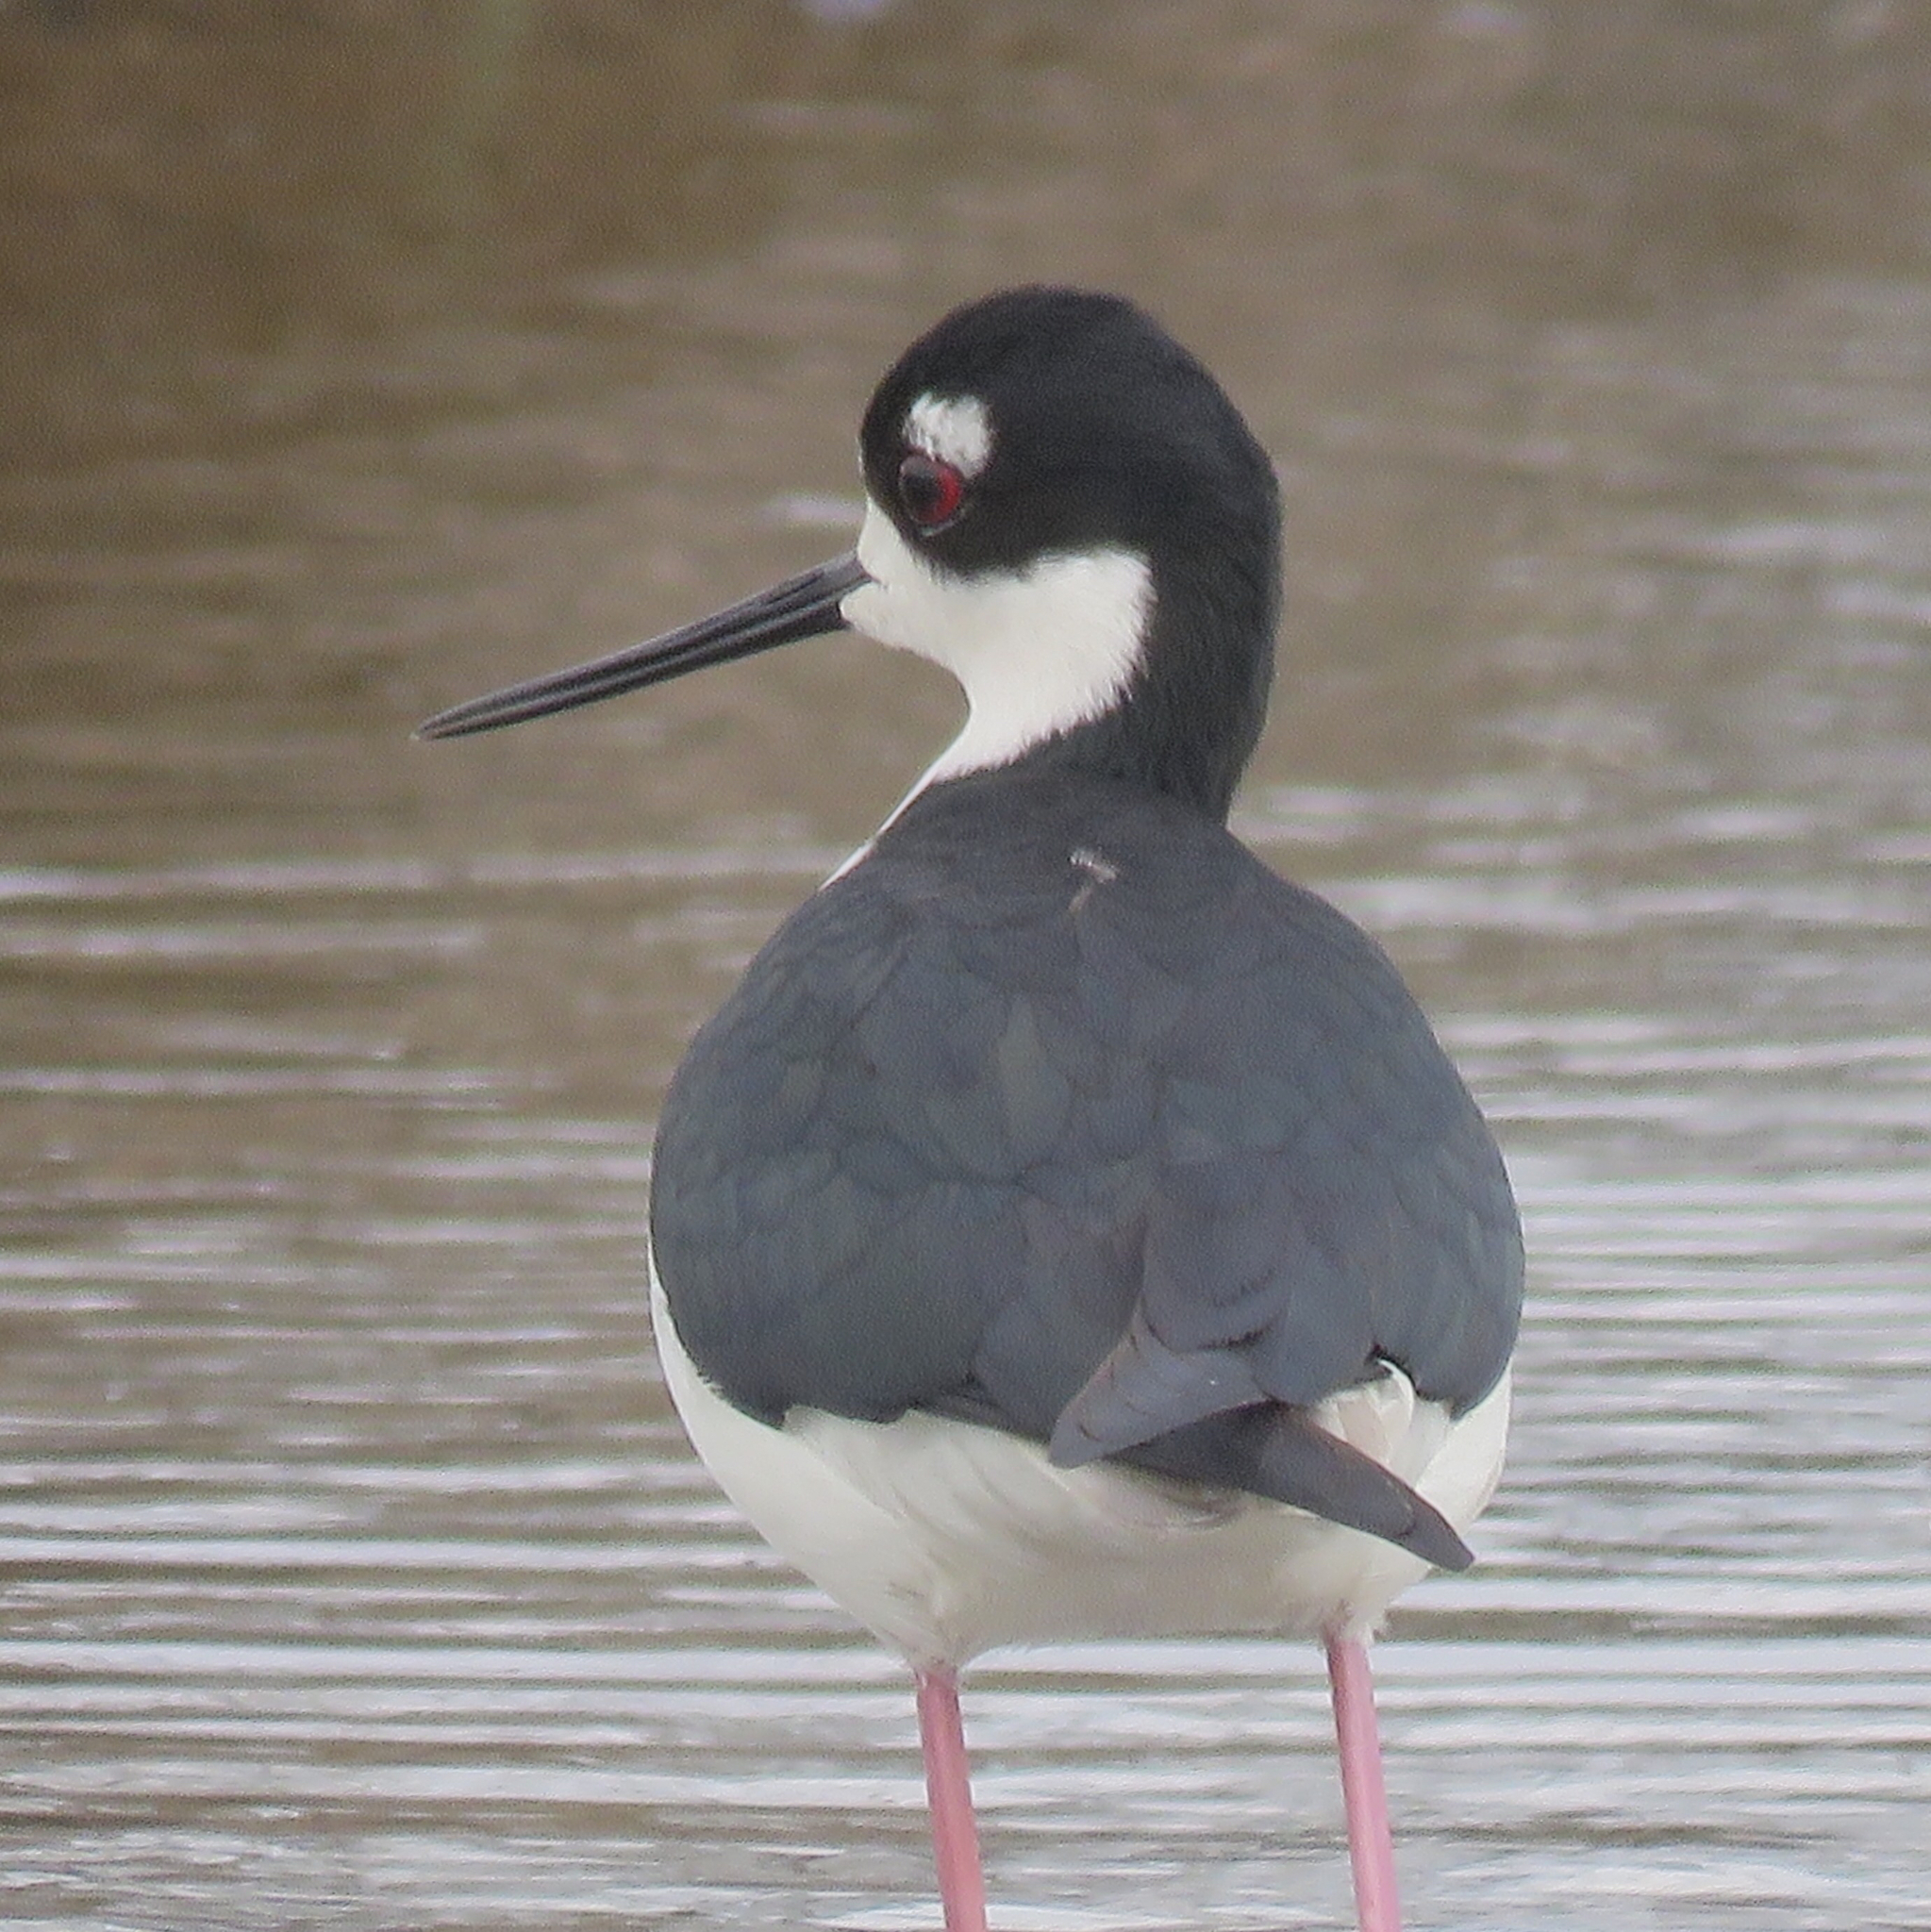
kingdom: Animalia
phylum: Chordata
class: Aves
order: Charadriiformes
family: Recurvirostridae
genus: Himantopus
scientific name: Himantopus mexicanus
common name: Black-necked stilt
